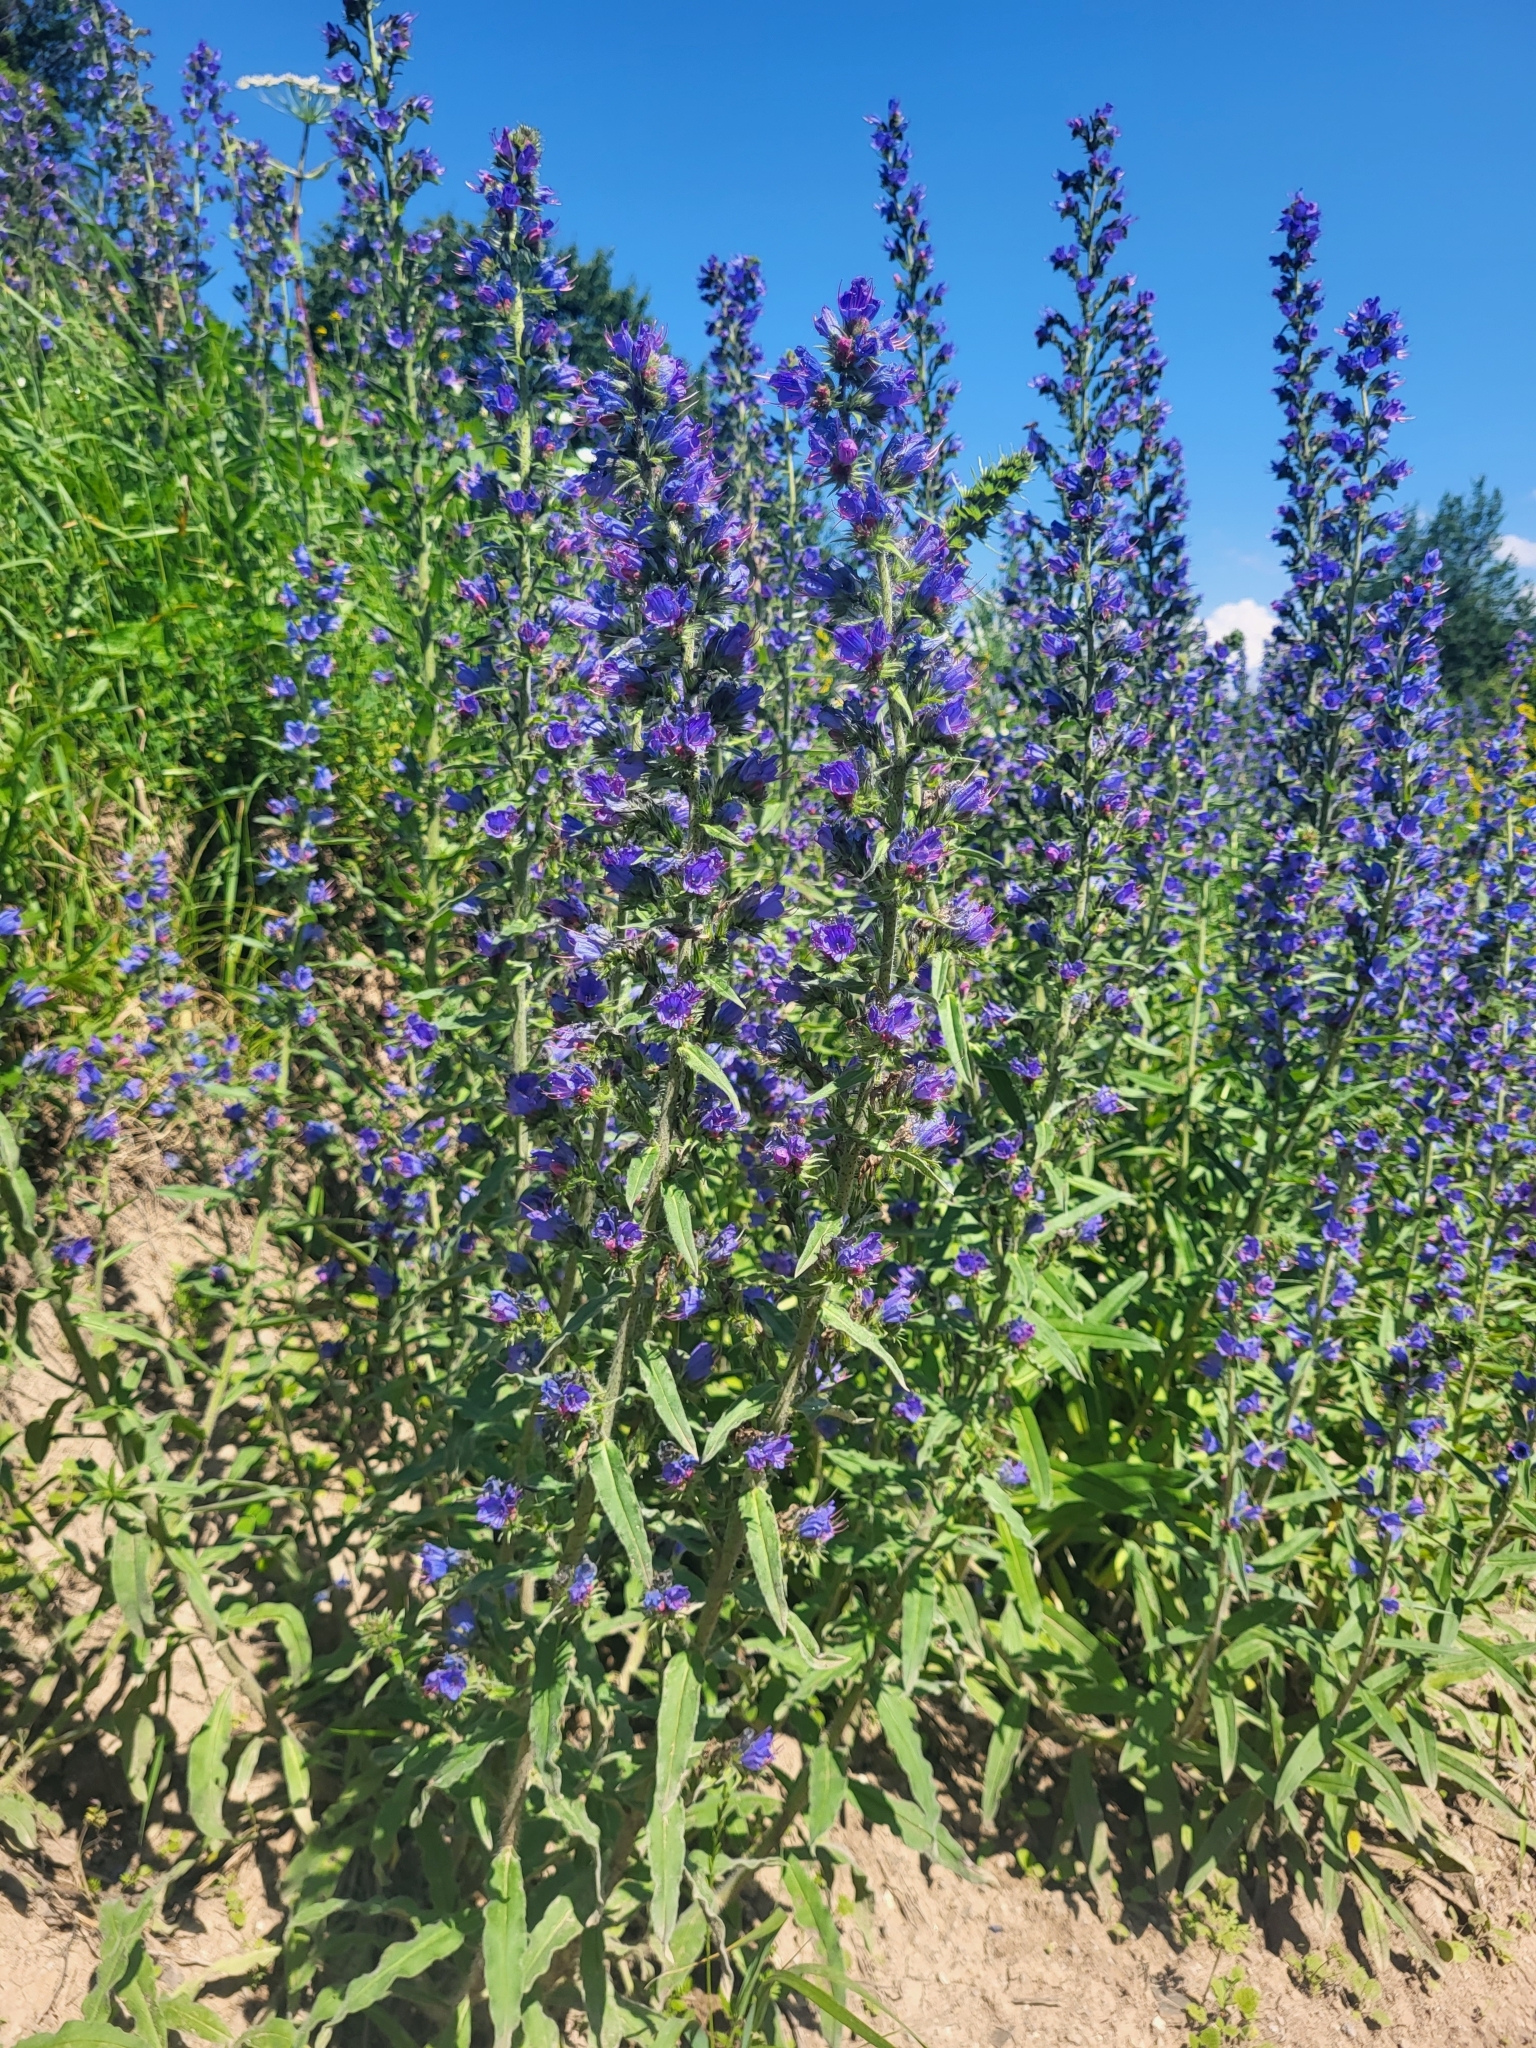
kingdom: Plantae
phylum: Tracheophyta
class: Magnoliopsida
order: Boraginales
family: Boraginaceae
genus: Echium
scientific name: Echium vulgare
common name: Common viper's bugloss
